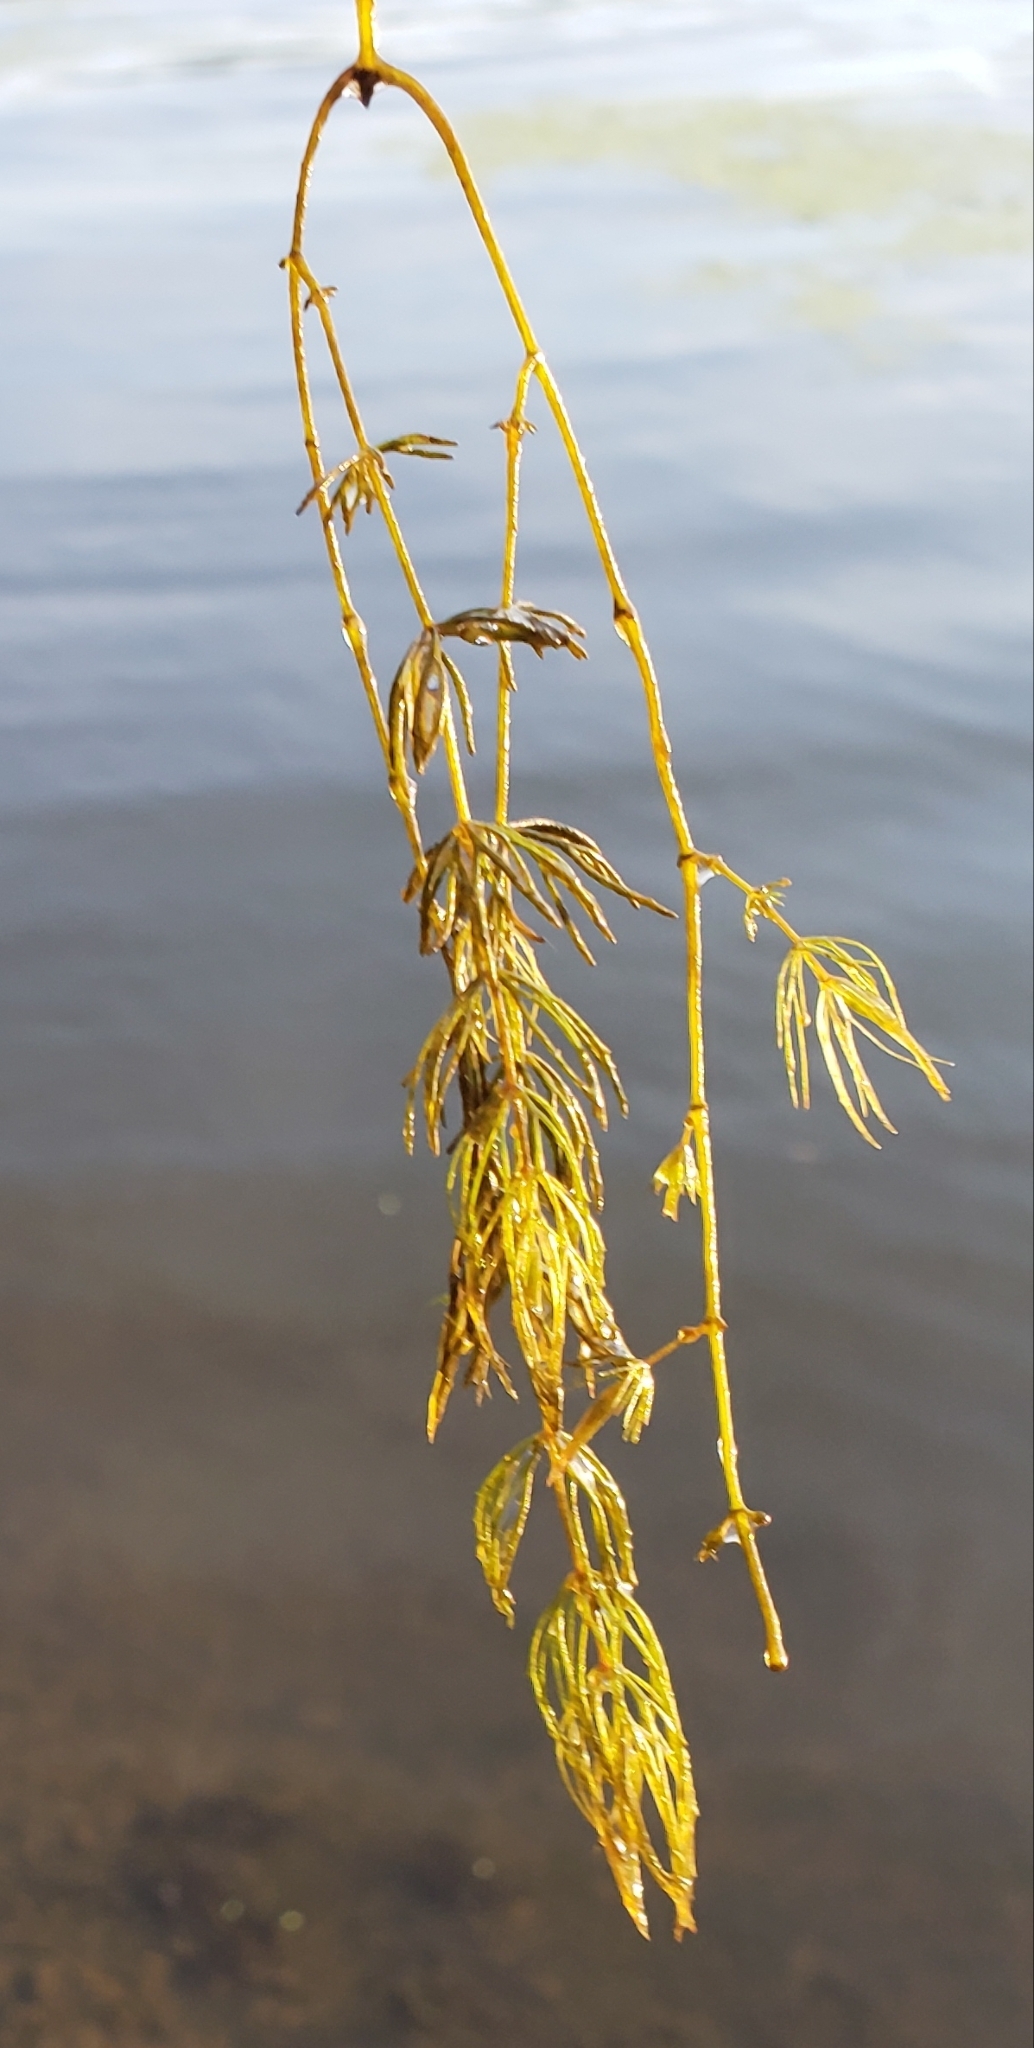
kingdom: Plantae
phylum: Tracheophyta
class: Magnoliopsida
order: Ceratophyllales
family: Ceratophyllaceae
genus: Ceratophyllum
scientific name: Ceratophyllum demersum
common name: Rigid hornwort
